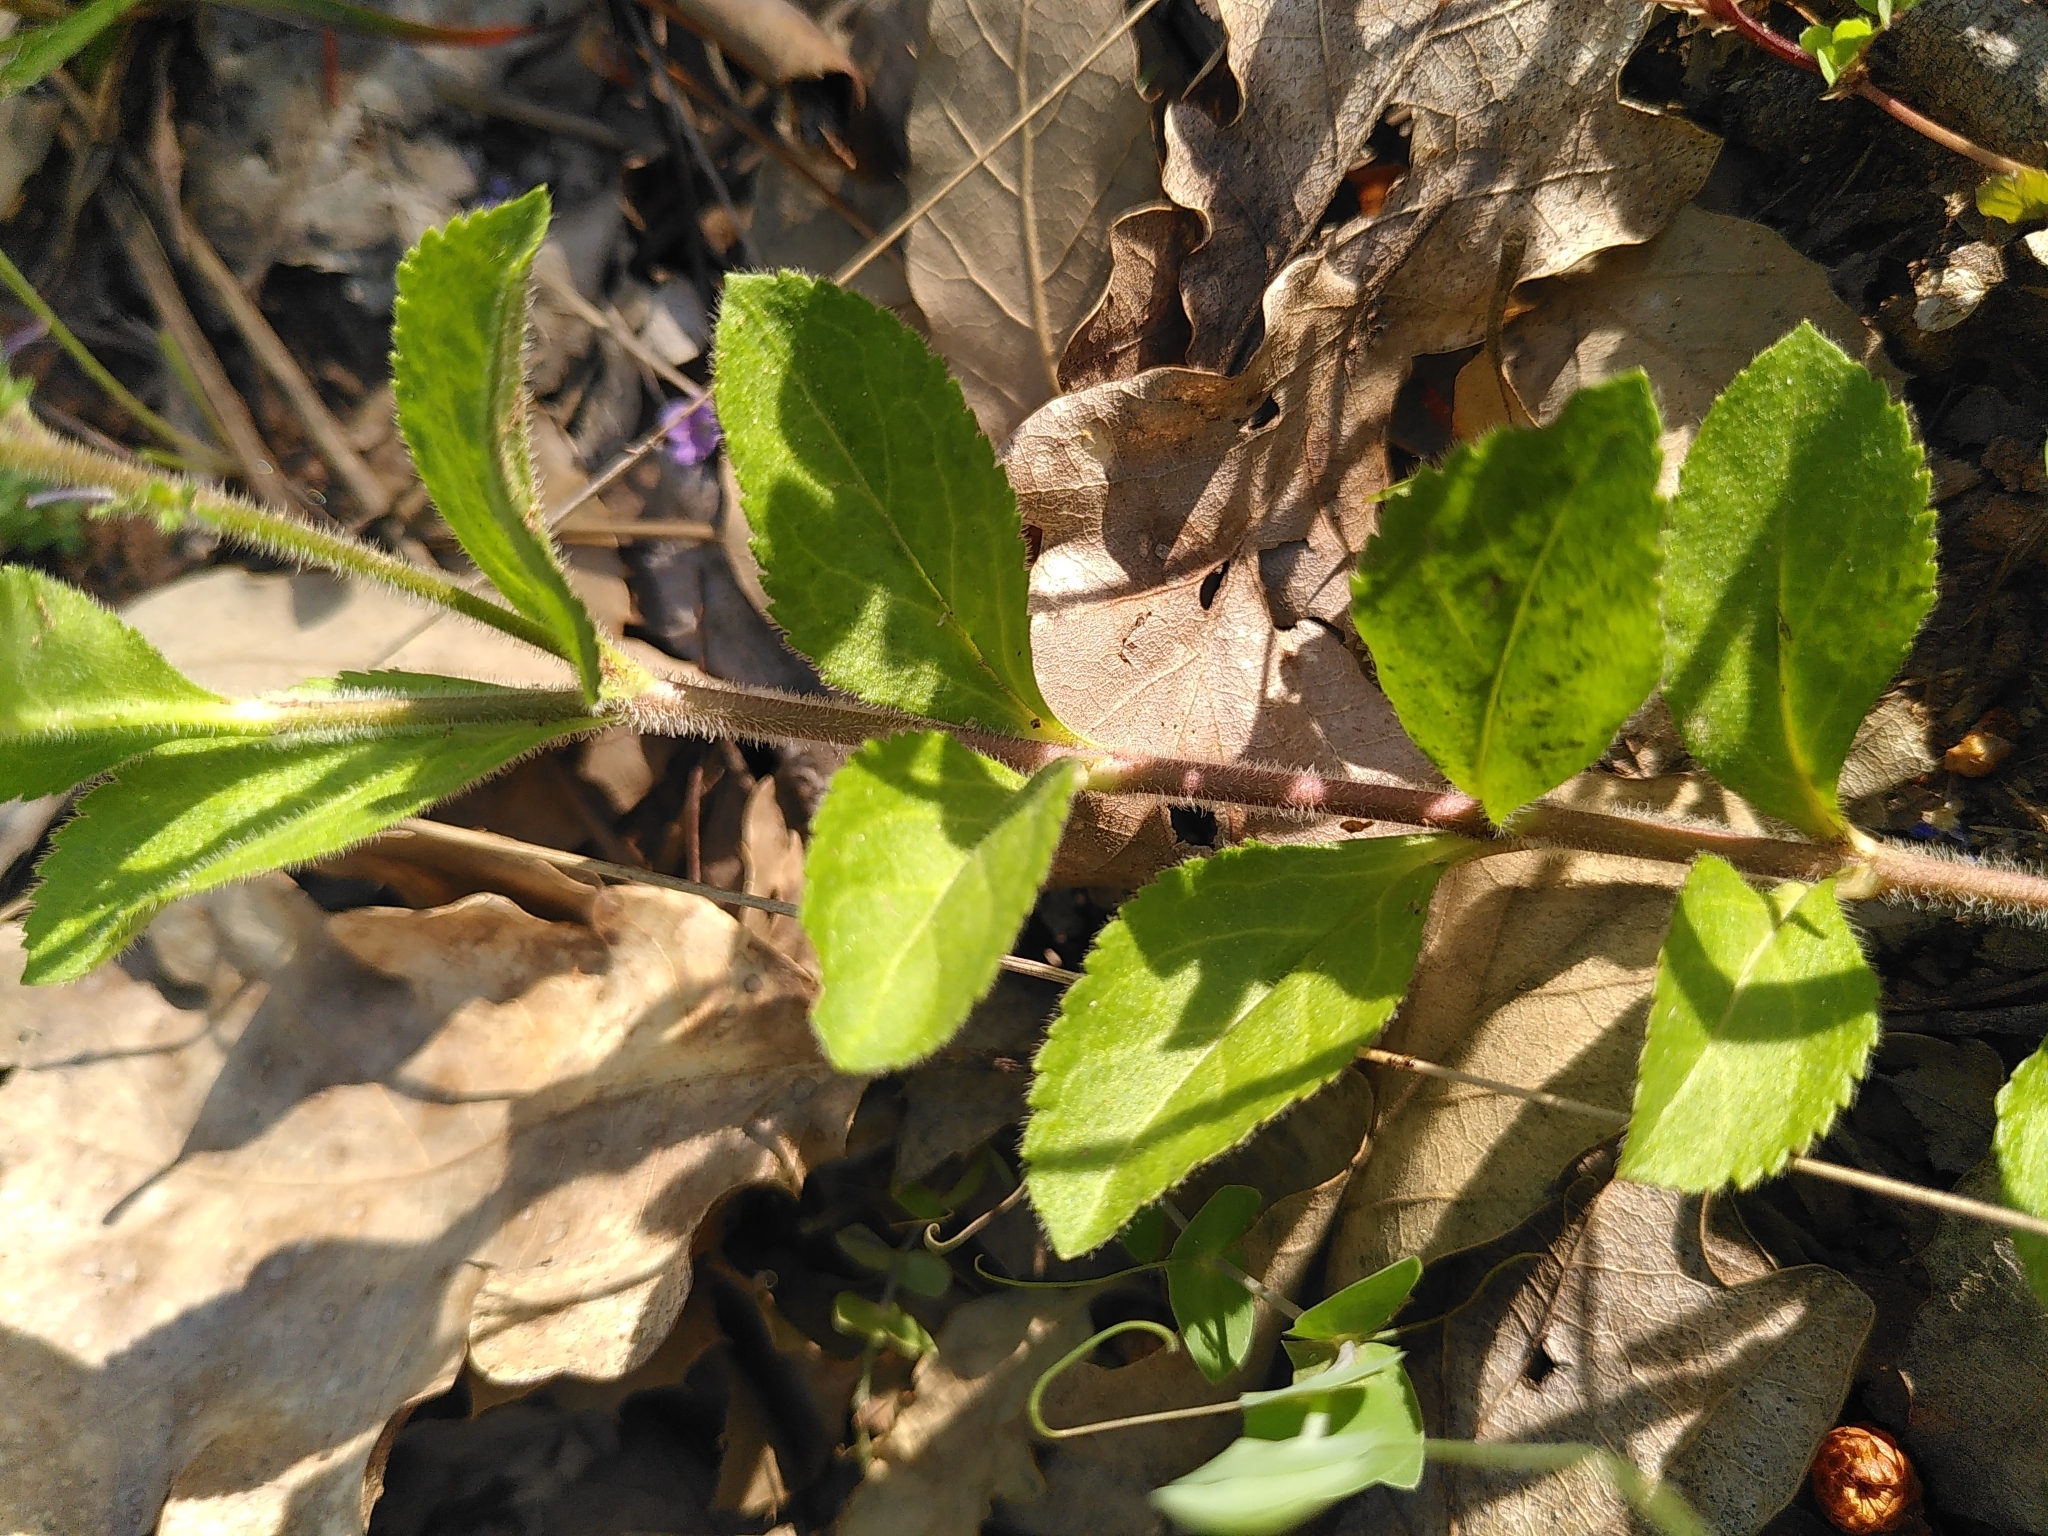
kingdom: Plantae
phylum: Tracheophyta
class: Magnoliopsida
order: Lamiales
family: Plantaginaceae
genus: Veronica
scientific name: Veronica officinalis
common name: Common speedwell
